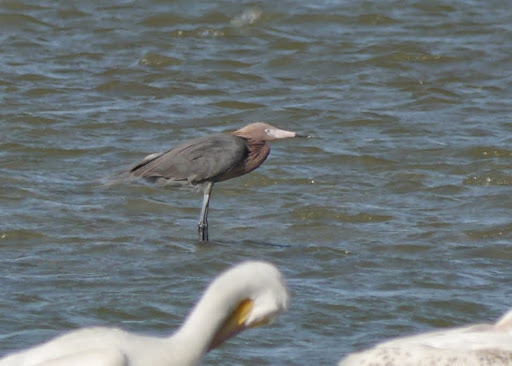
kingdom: Animalia
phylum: Chordata
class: Aves
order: Pelecaniformes
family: Ardeidae
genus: Egretta
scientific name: Egretta rufescens
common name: Reddish egret
